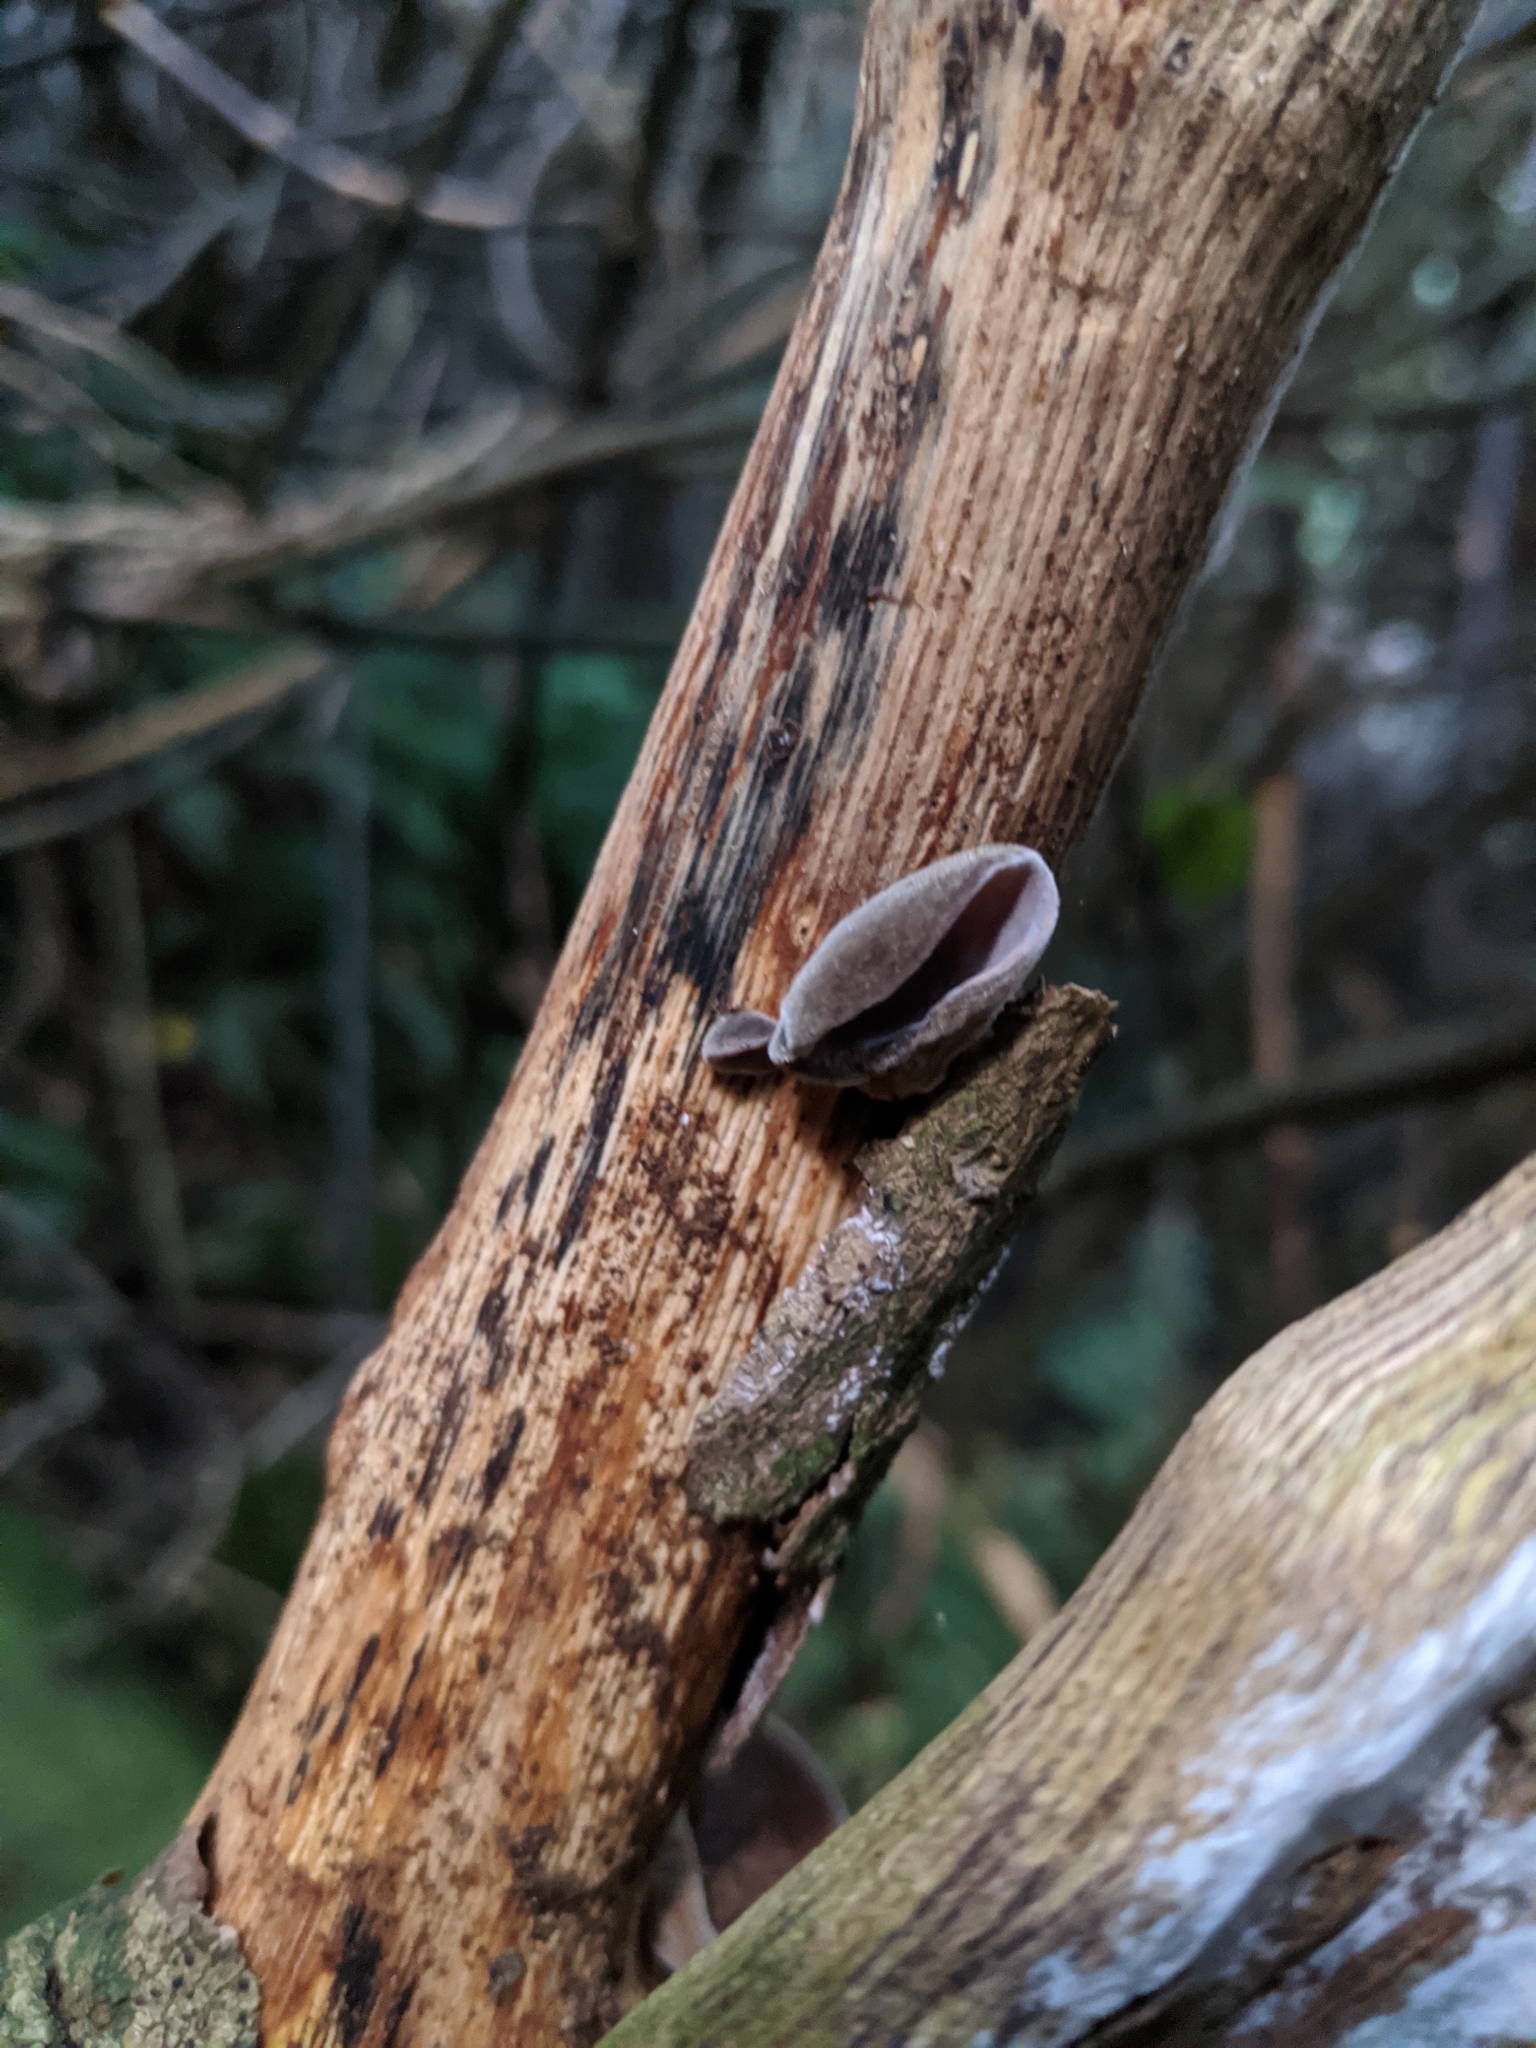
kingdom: Fungi
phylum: Basidiomycota
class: Agaricomycetes
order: Auriculariales
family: Auriculariaceae
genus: Auricularia
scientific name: Auricularia cornea
